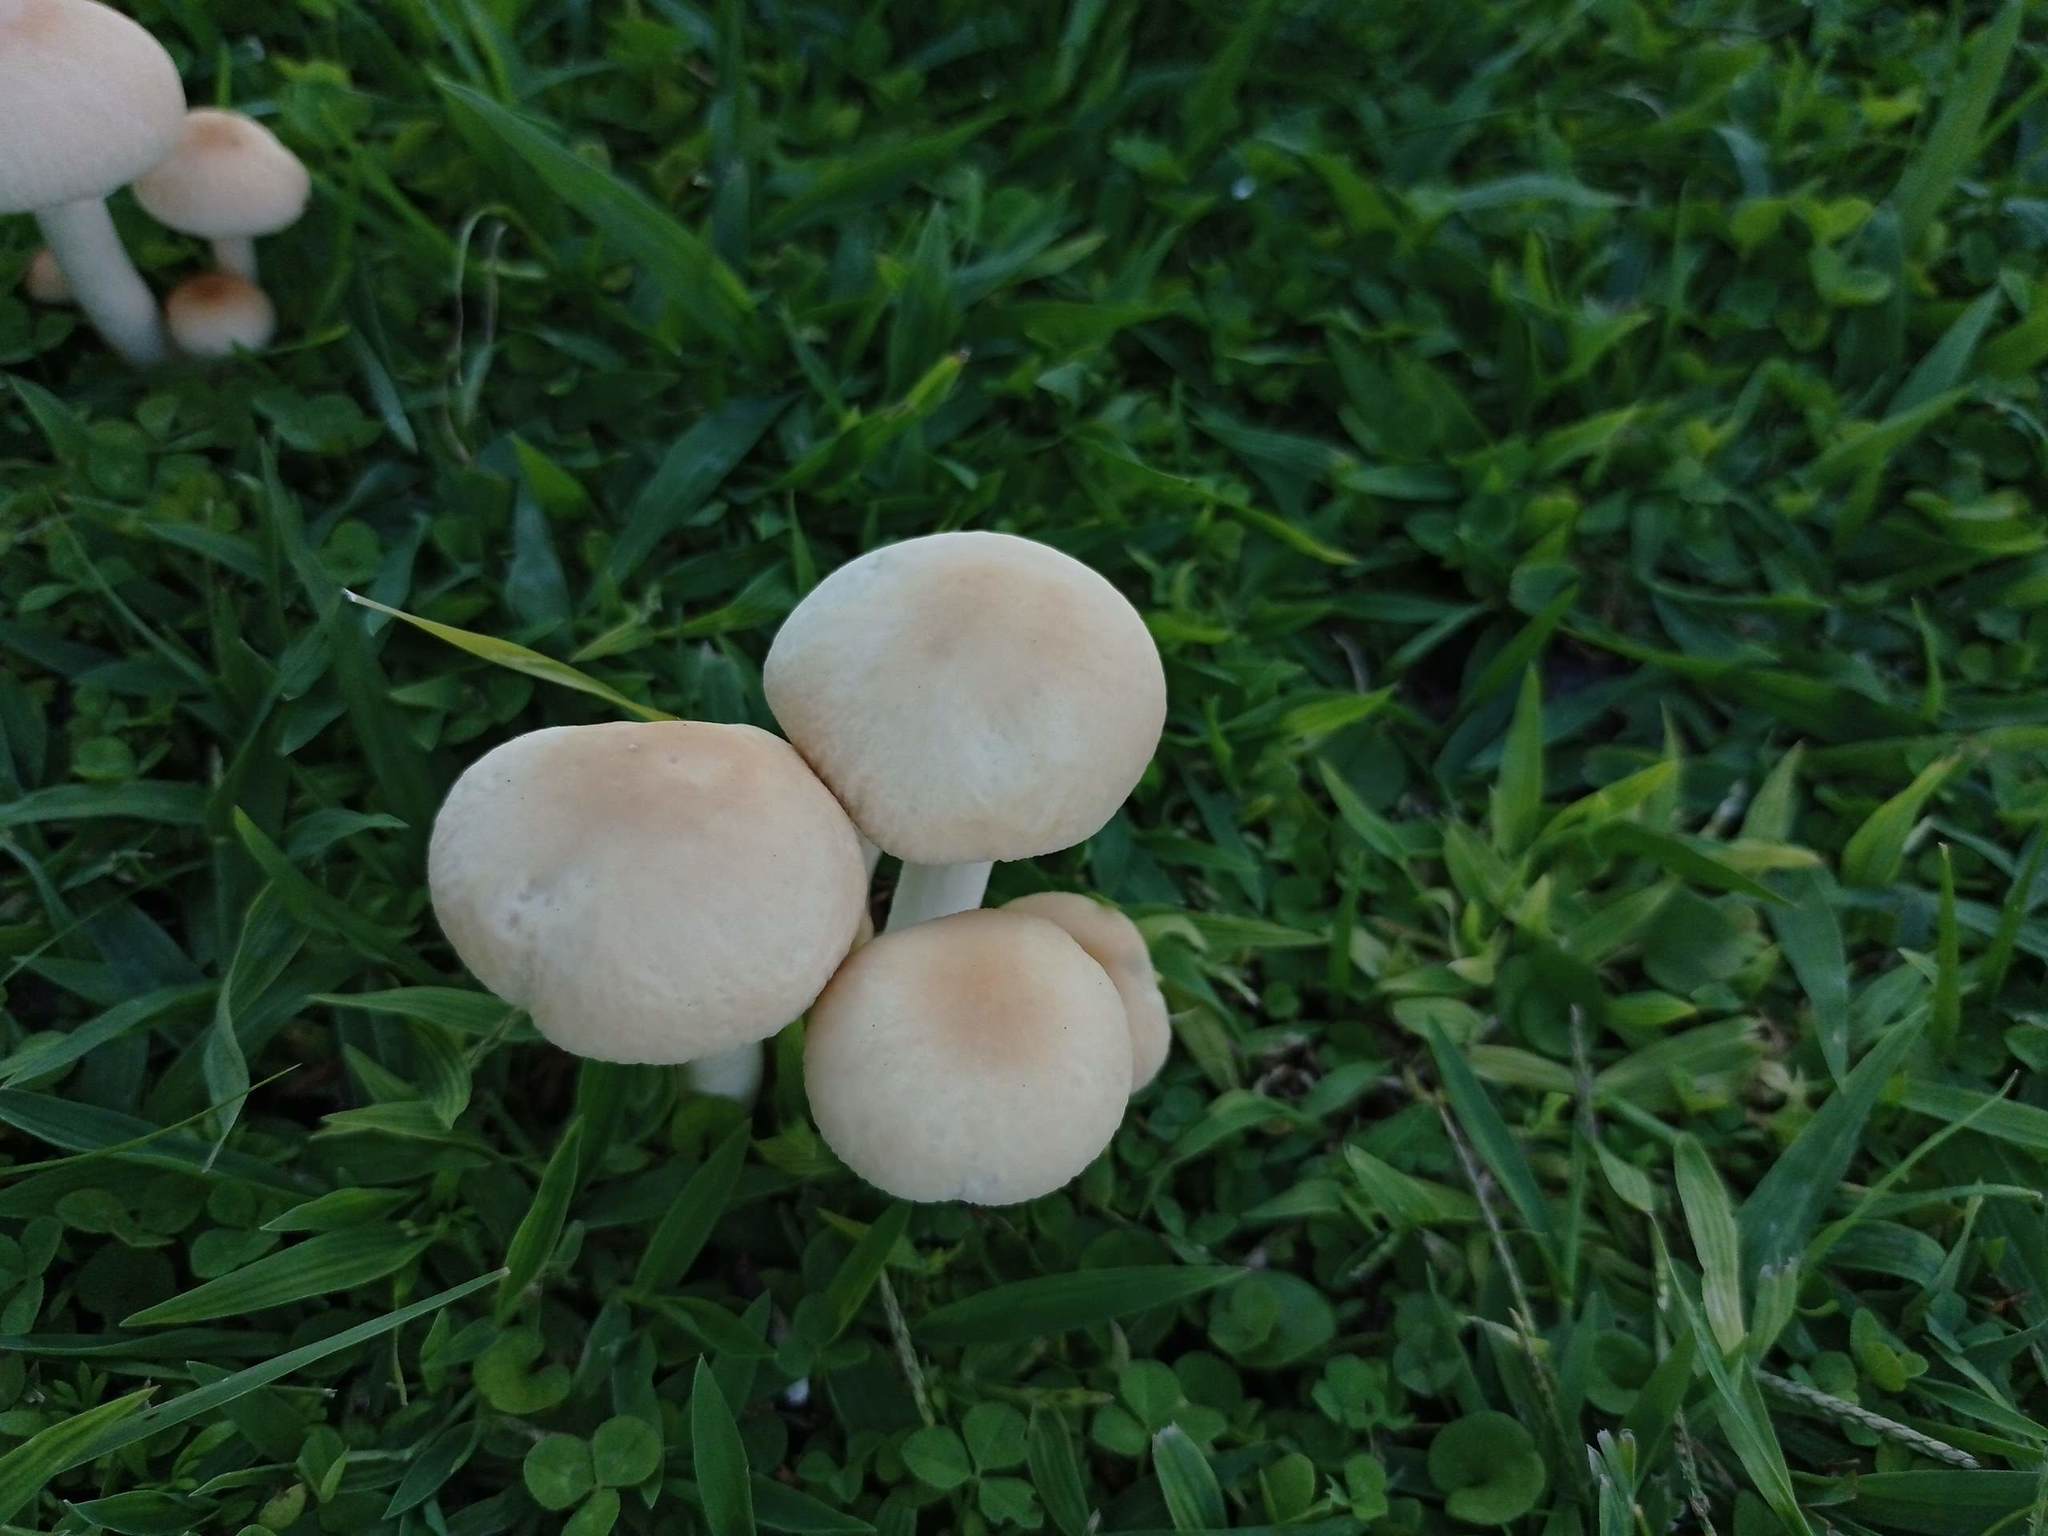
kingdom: Fungi
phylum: Basidiomycota
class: Agaricomycetes
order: Agaricales
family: Marasmiaceae
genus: Marasmius
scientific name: Marasmius oreades
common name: Fairy ring champignon
